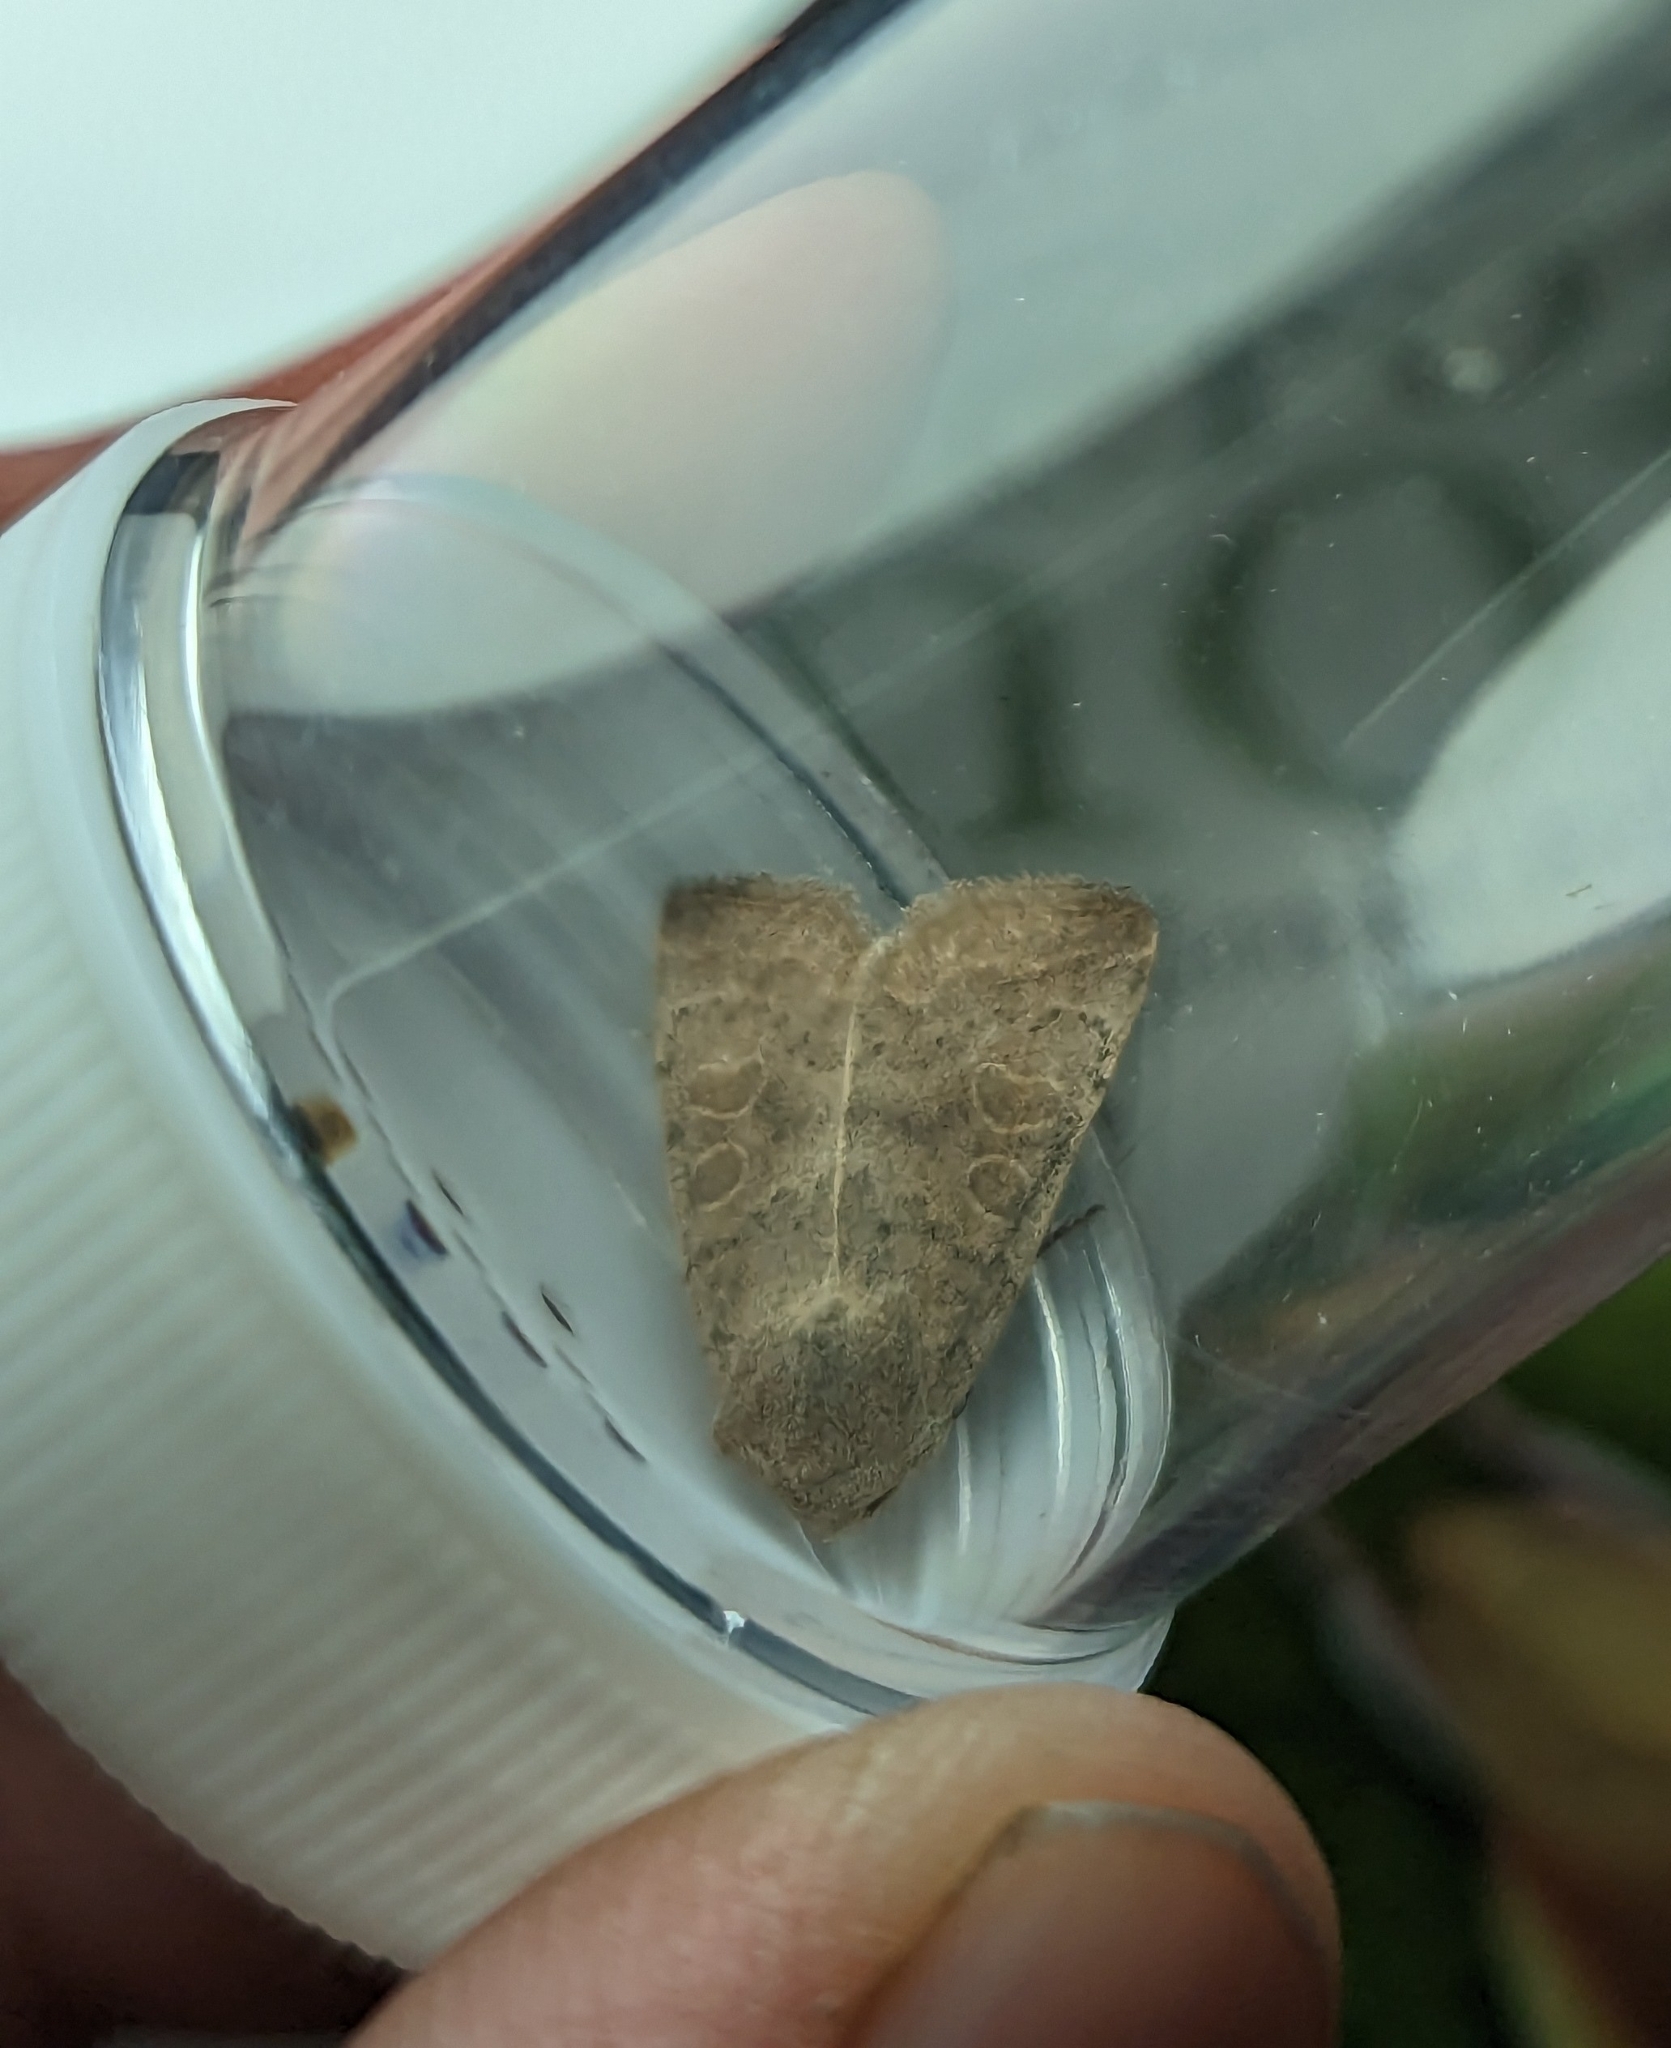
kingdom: Animalia
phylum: Arthropoda
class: Insecta
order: Lepidoptera
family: Noctuidae
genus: Hoplodrina
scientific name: Hoplodrina ambigua
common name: Vine's rustic
